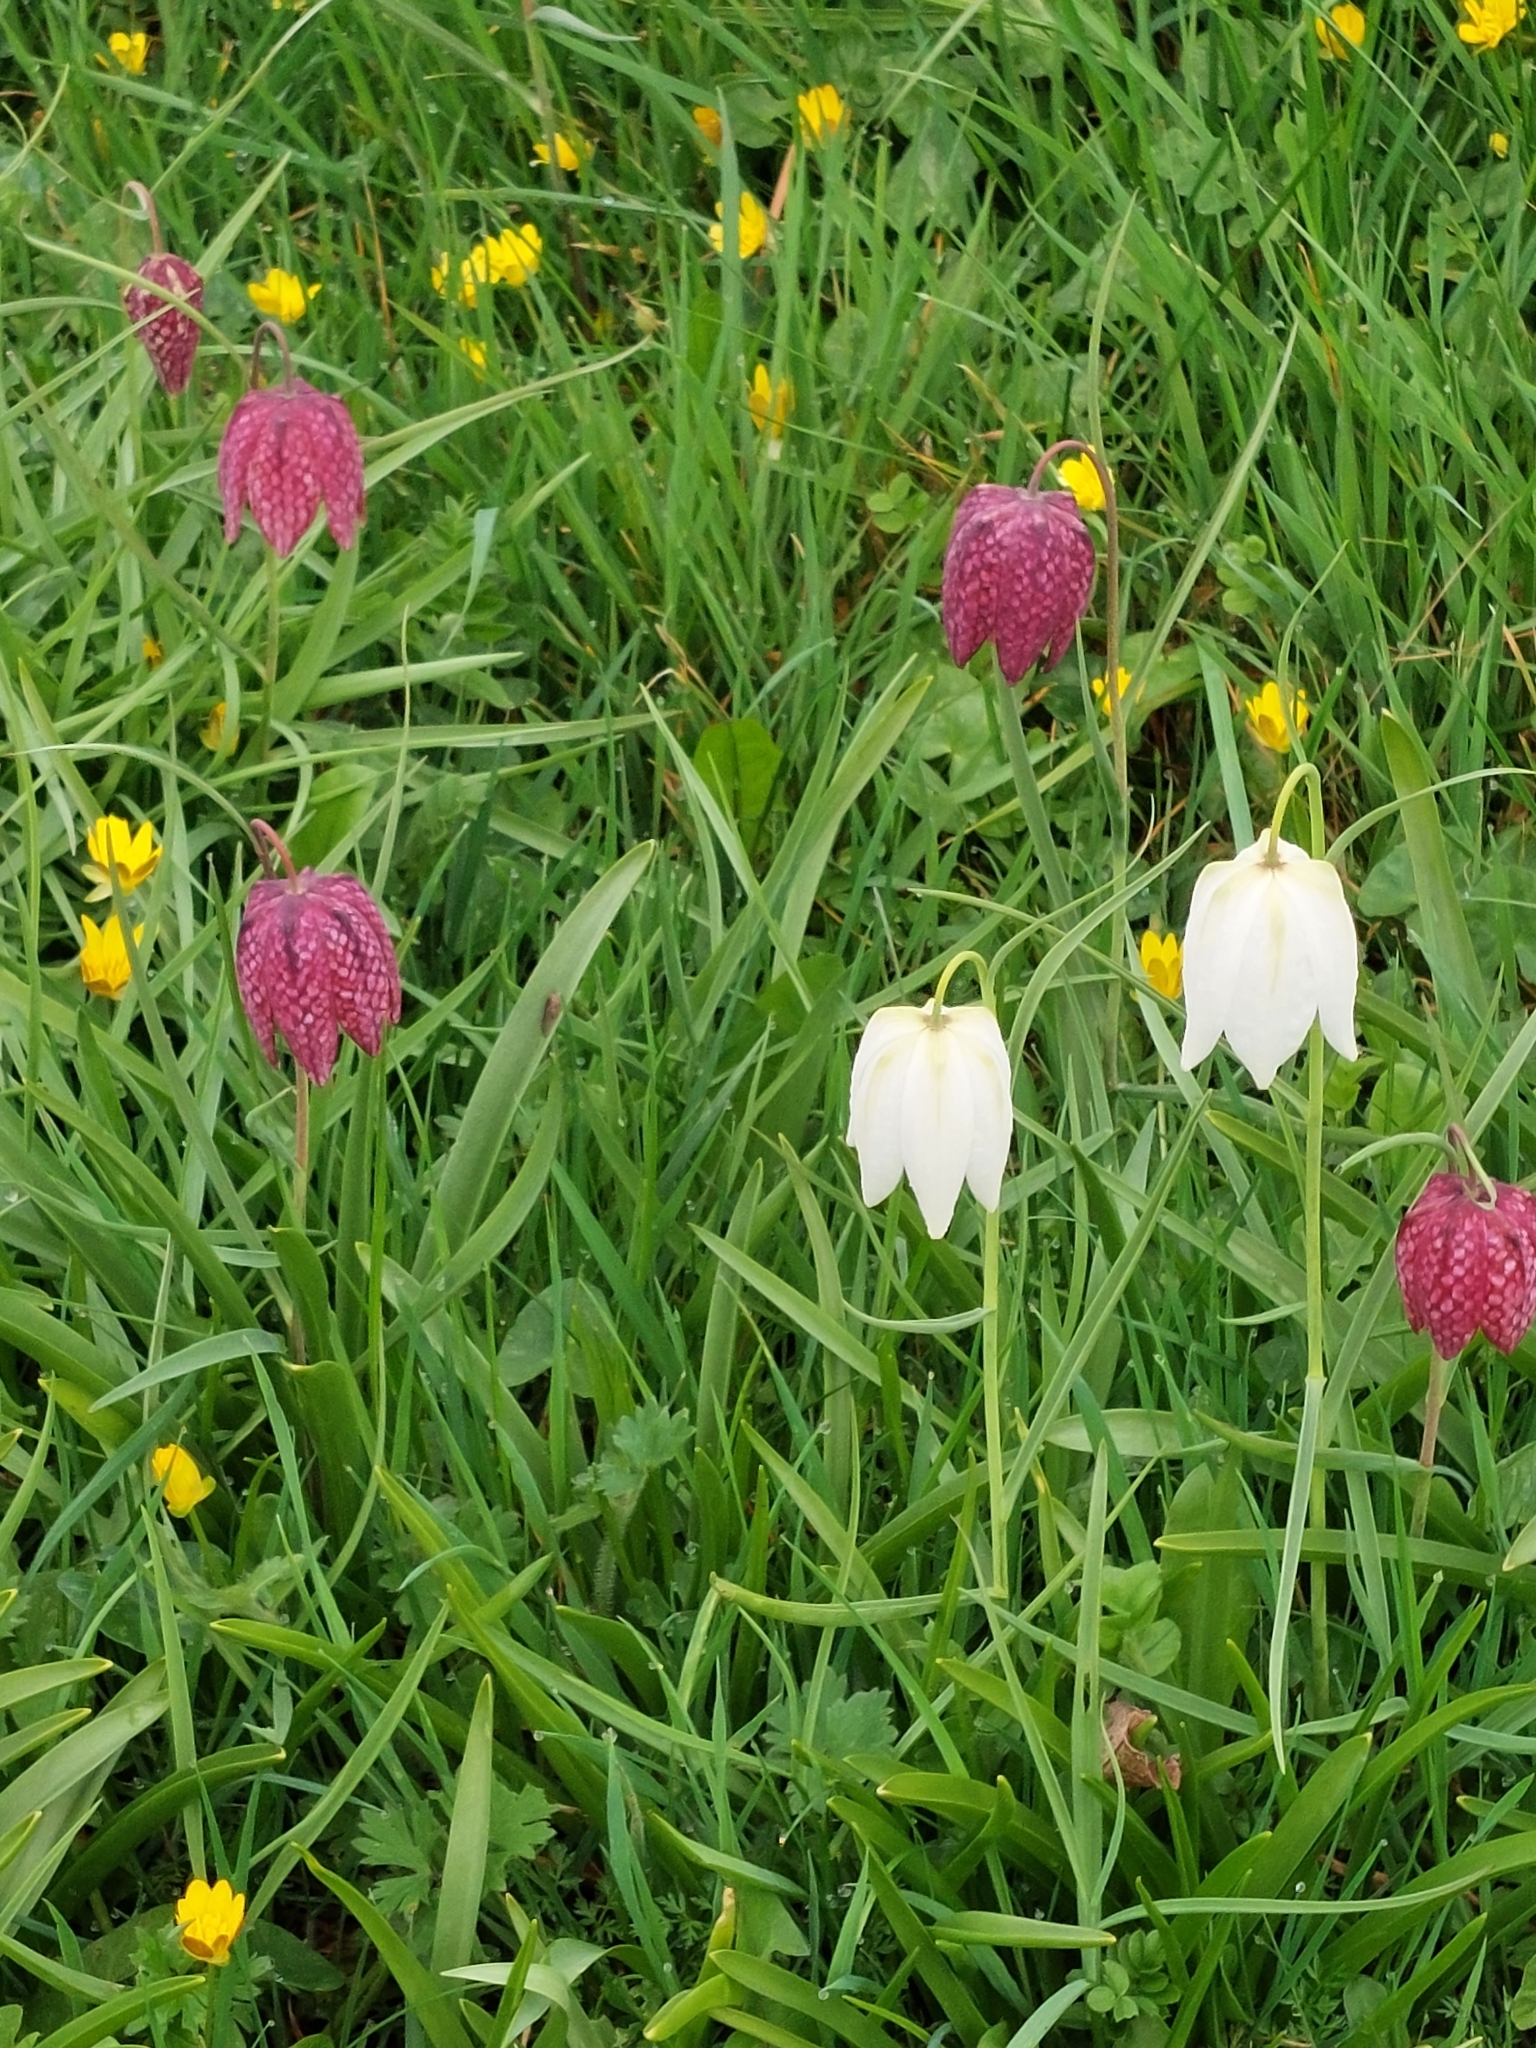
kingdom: Plantae
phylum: Tracheophyta
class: Liliopsida
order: Liliales
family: Liliaceae
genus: Fritillaria
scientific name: Fritillaria meleagris
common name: Fritillary
